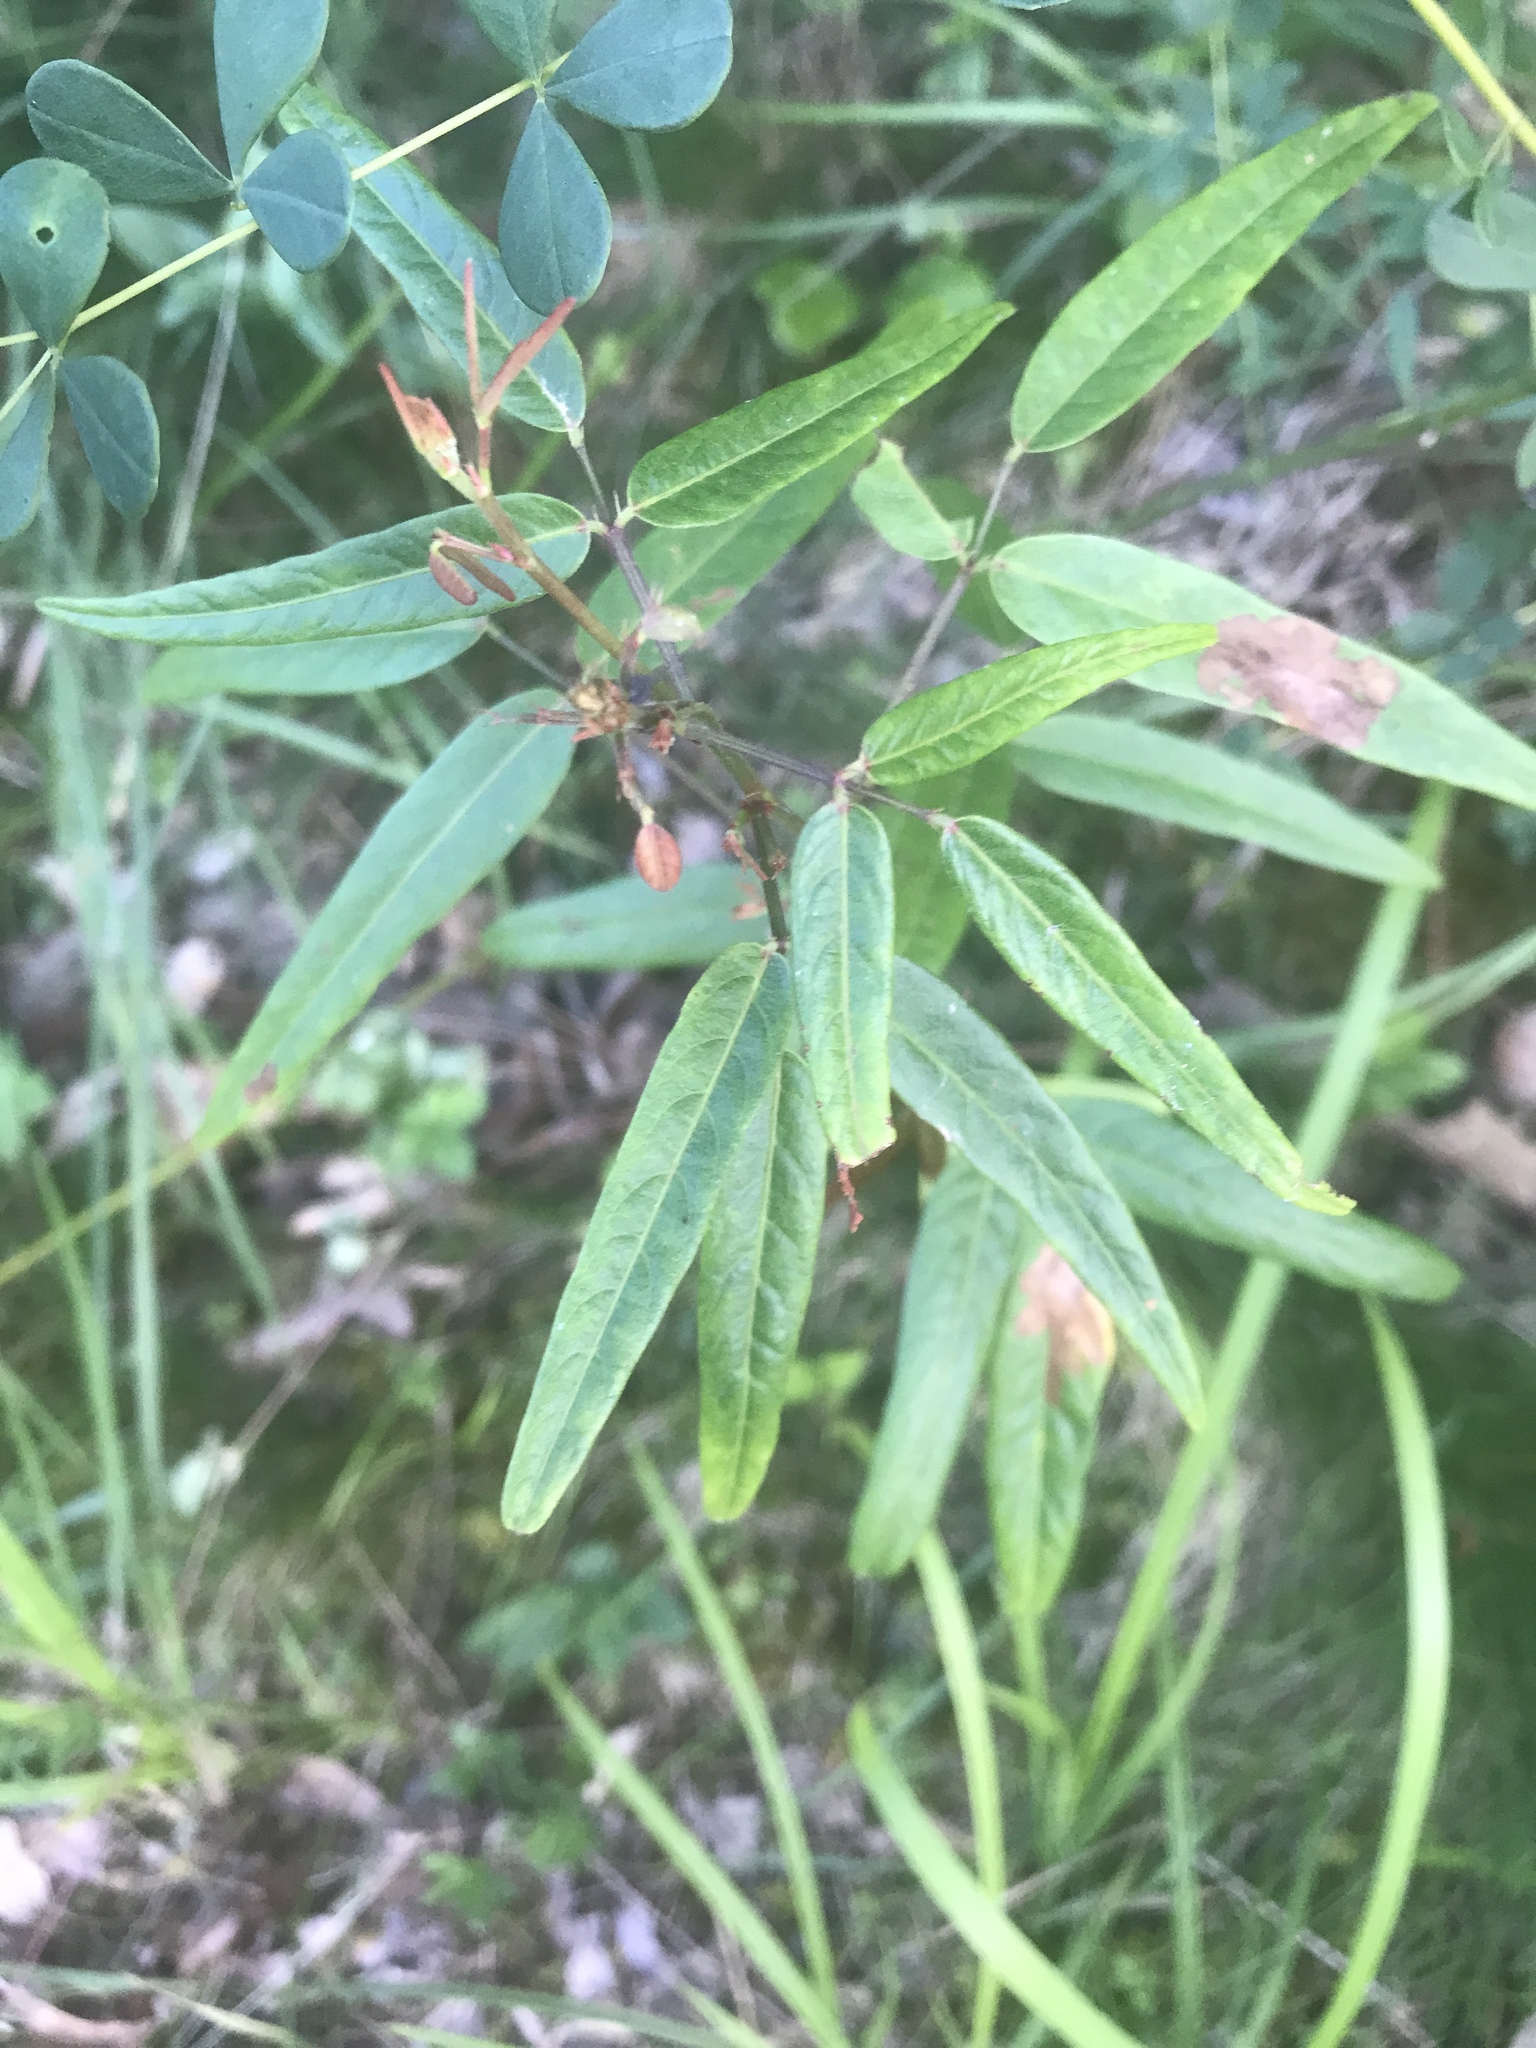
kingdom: Plantae
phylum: Tracheophyta
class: Magnoliopsida
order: Fabales
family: Fabaceae
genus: Desmodium
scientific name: Desmodium paniculatum
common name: Panicled tick-clover
